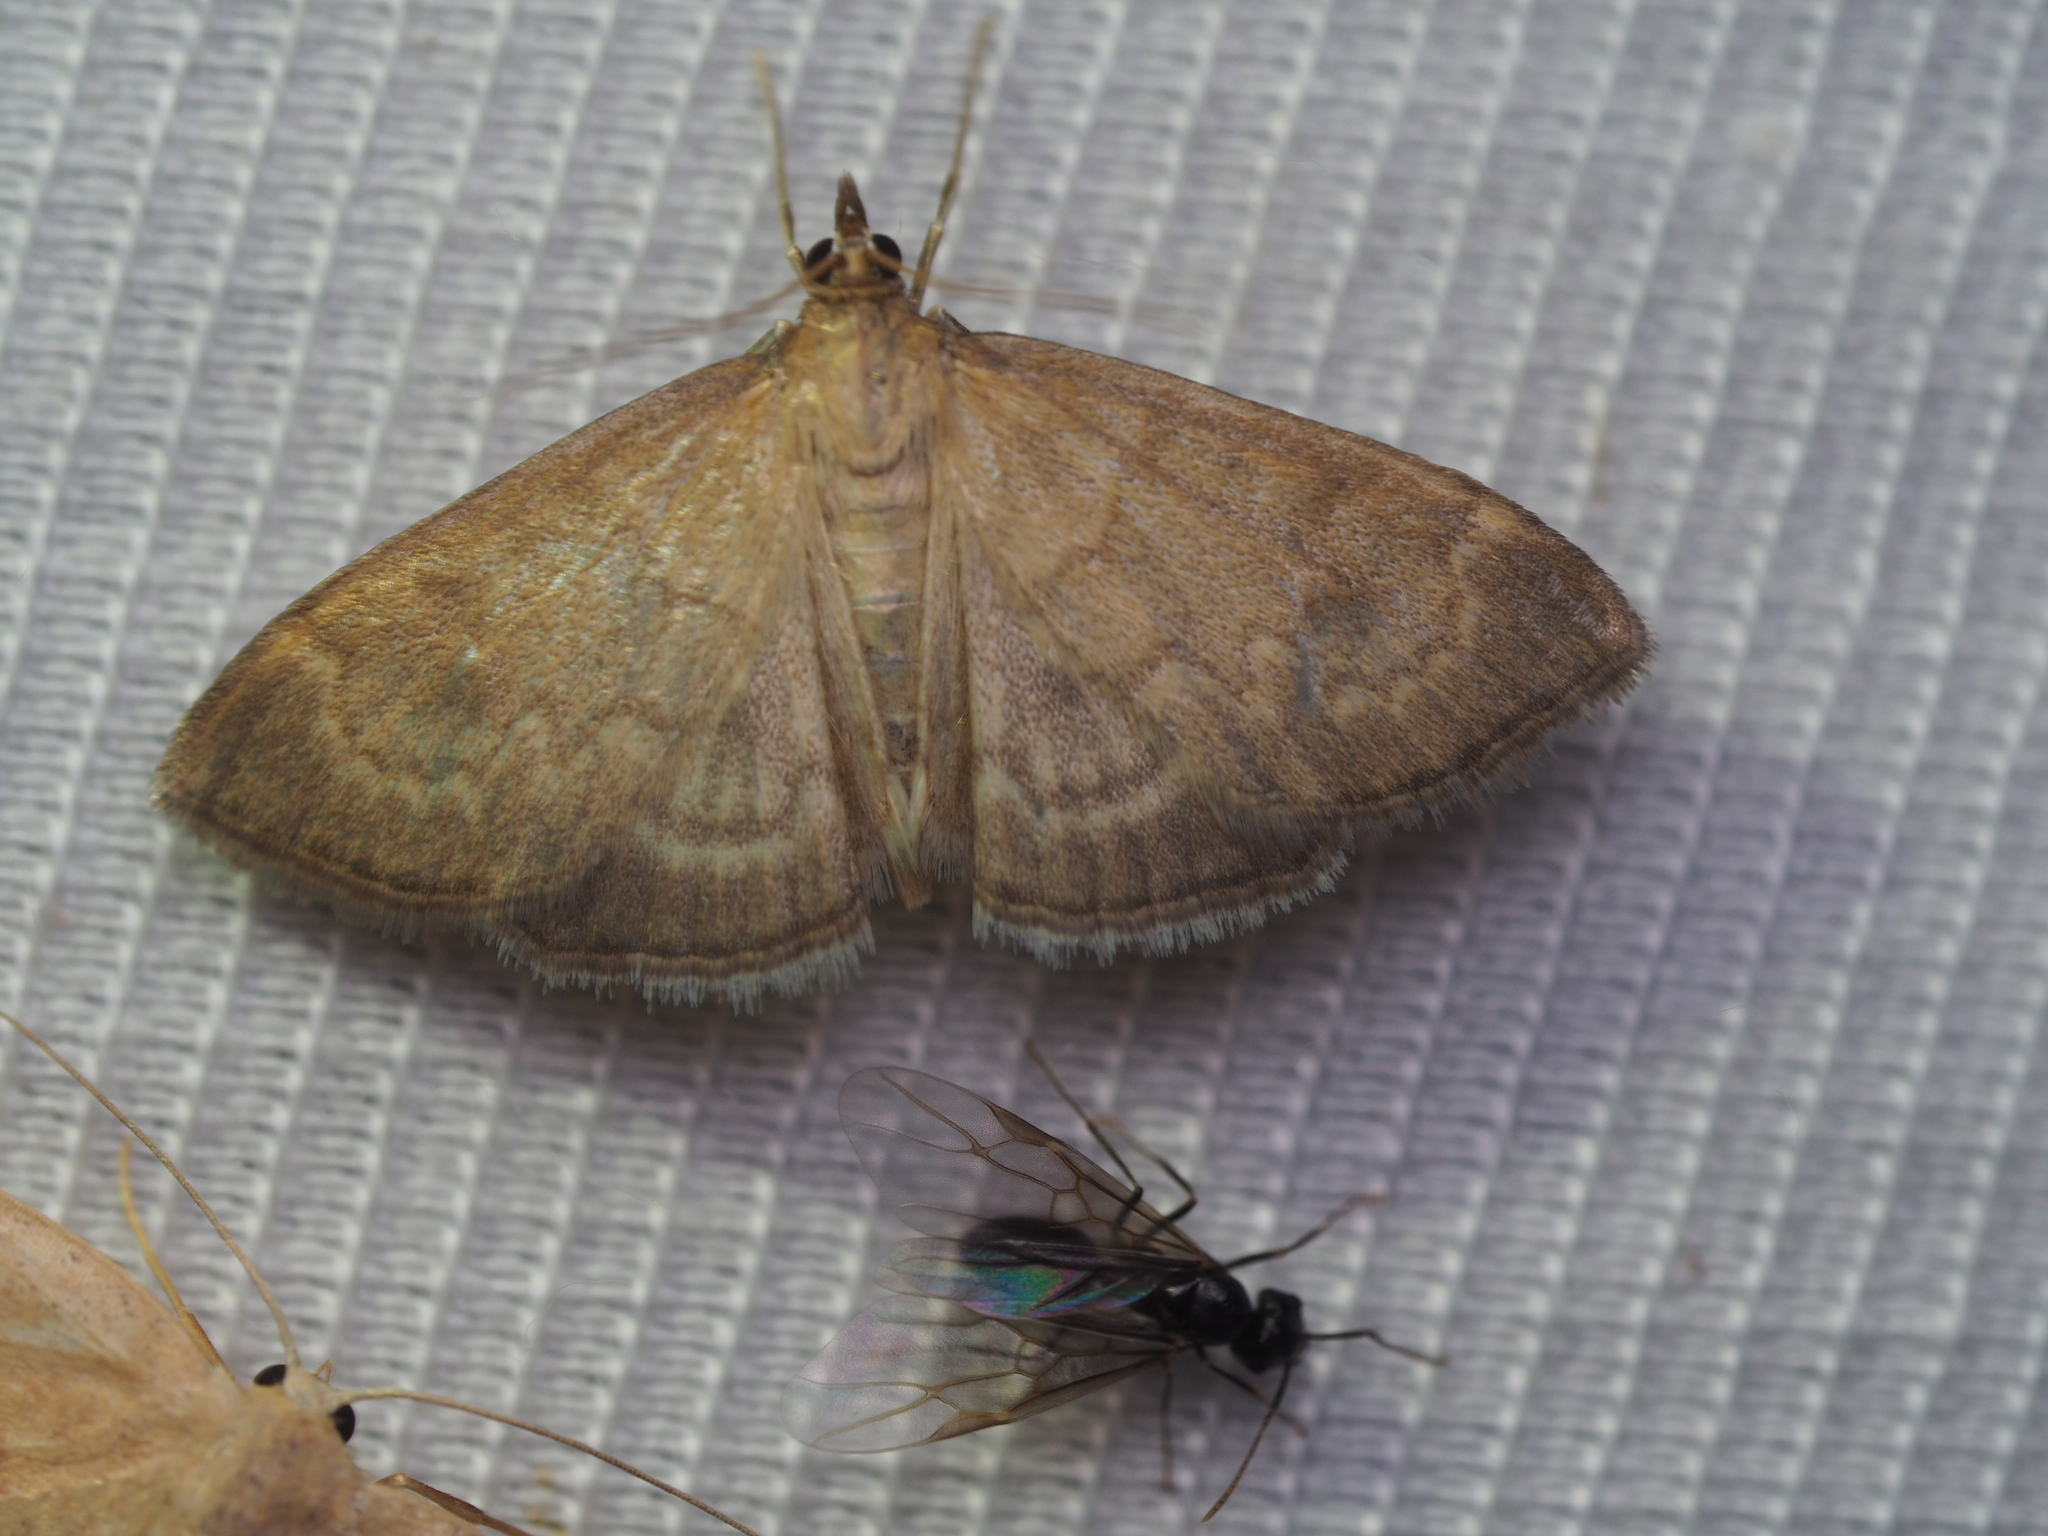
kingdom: Animalia
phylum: Arthropoda
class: Insecta
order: Lepidoptera
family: Crambidae
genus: Anania
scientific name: Anania fuscalis
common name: Cinerous pearl
